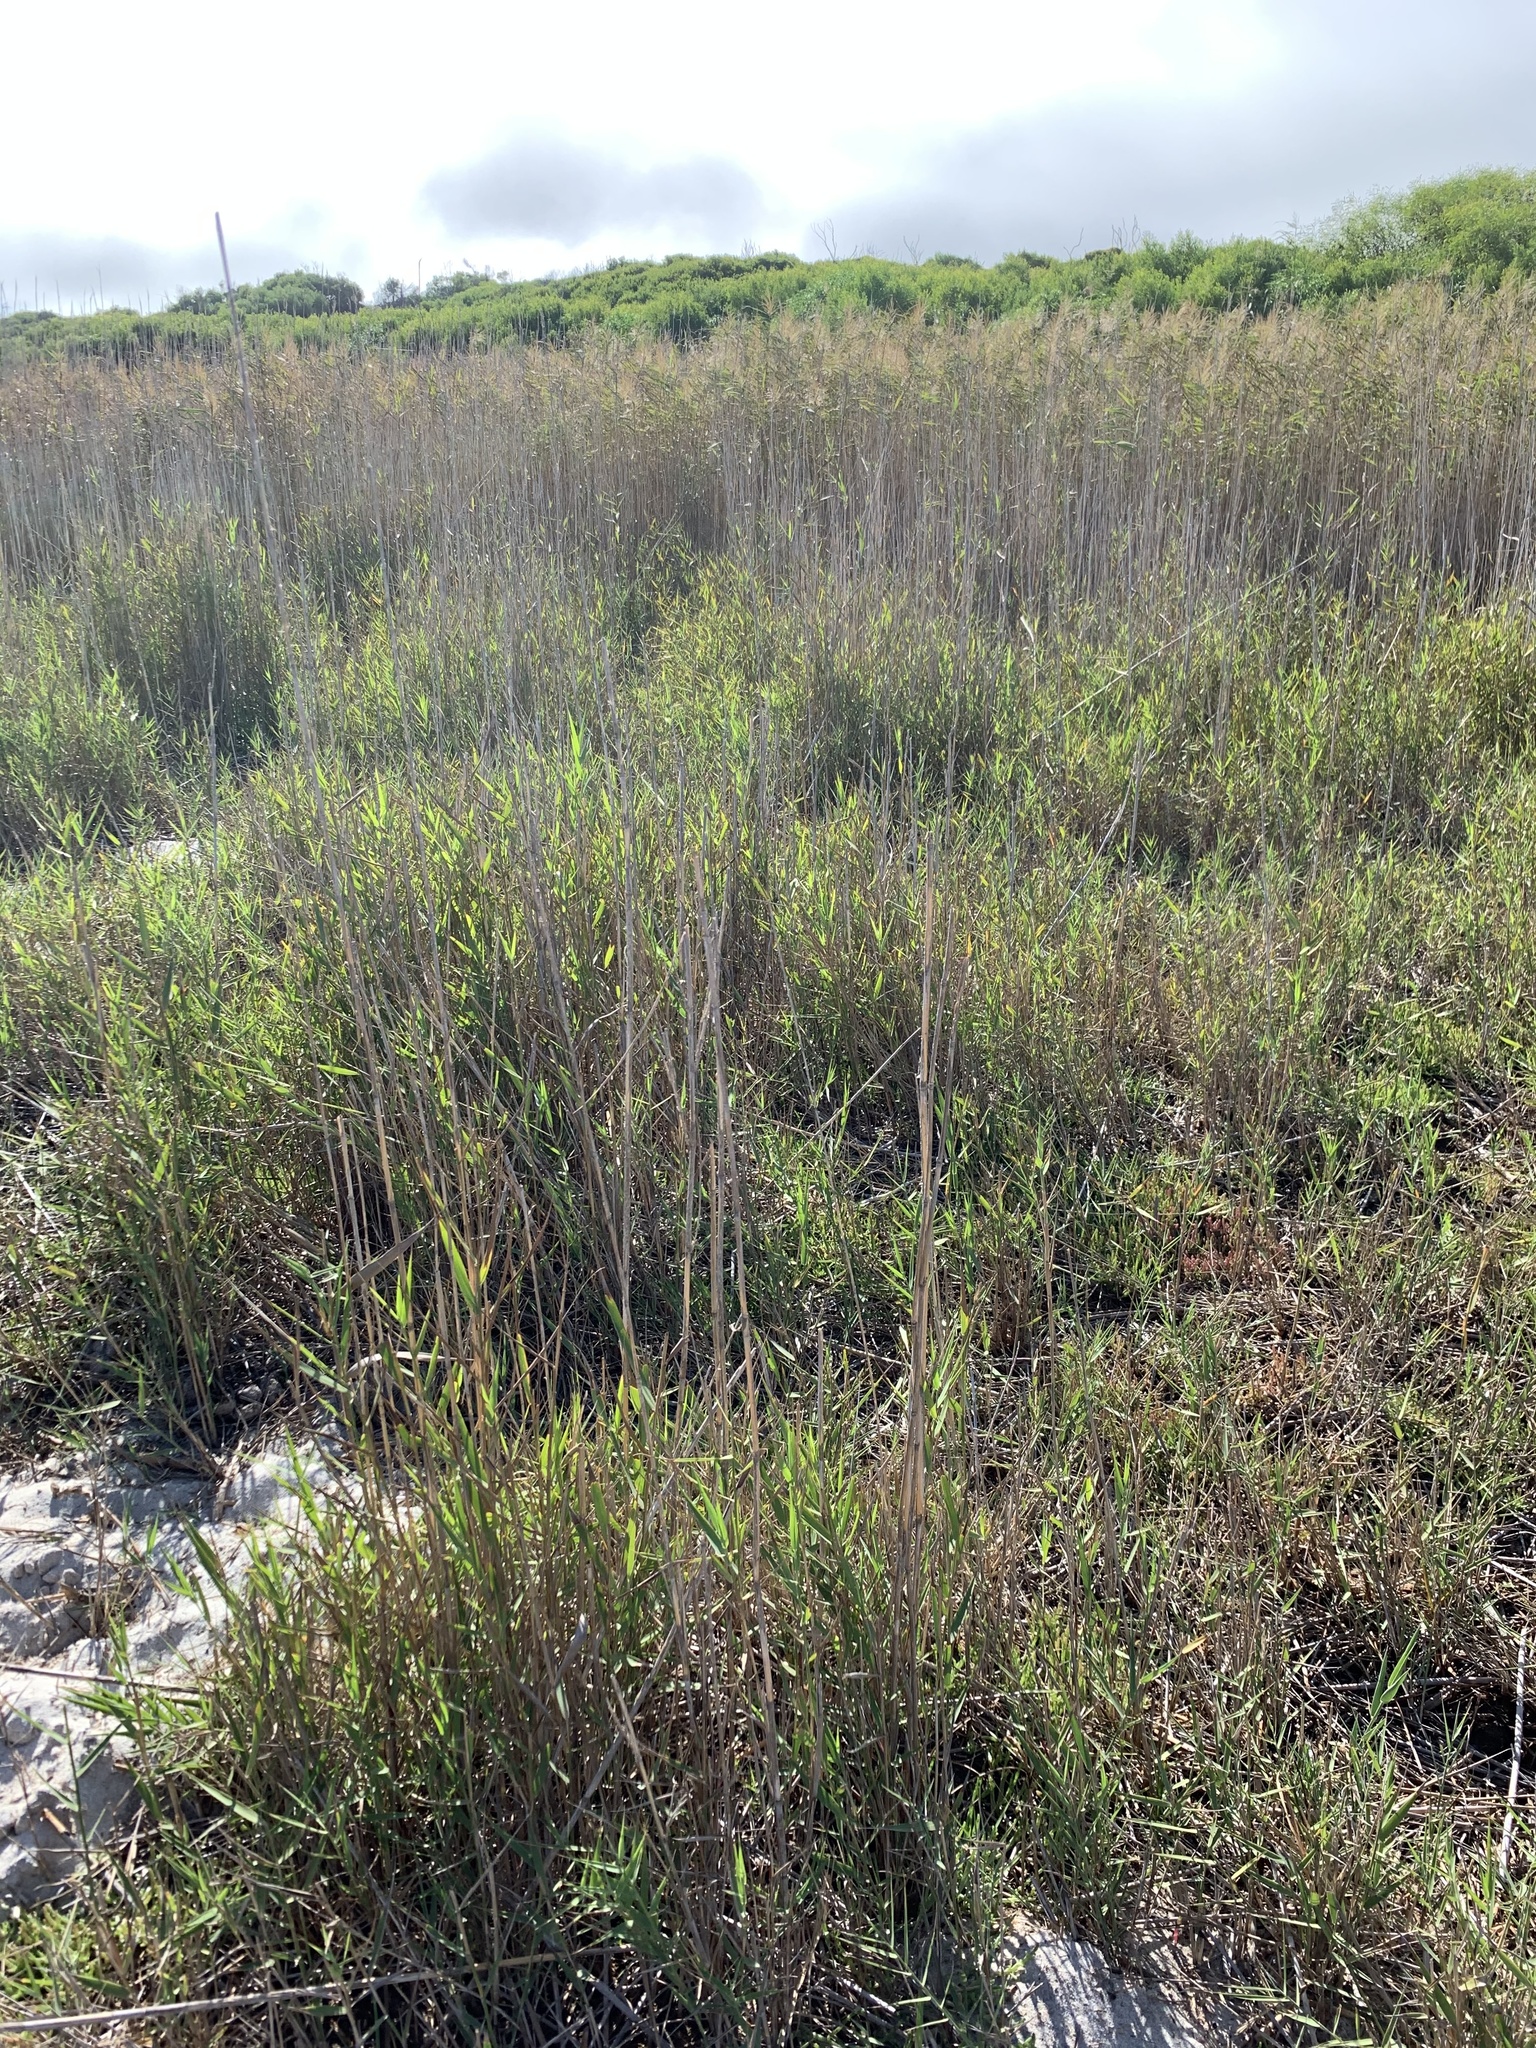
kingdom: Plantae
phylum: Tracheophyta
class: Liliopsida
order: Poales
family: Poaceae
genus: Phragmites
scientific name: Phragmites australis
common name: Common reed
